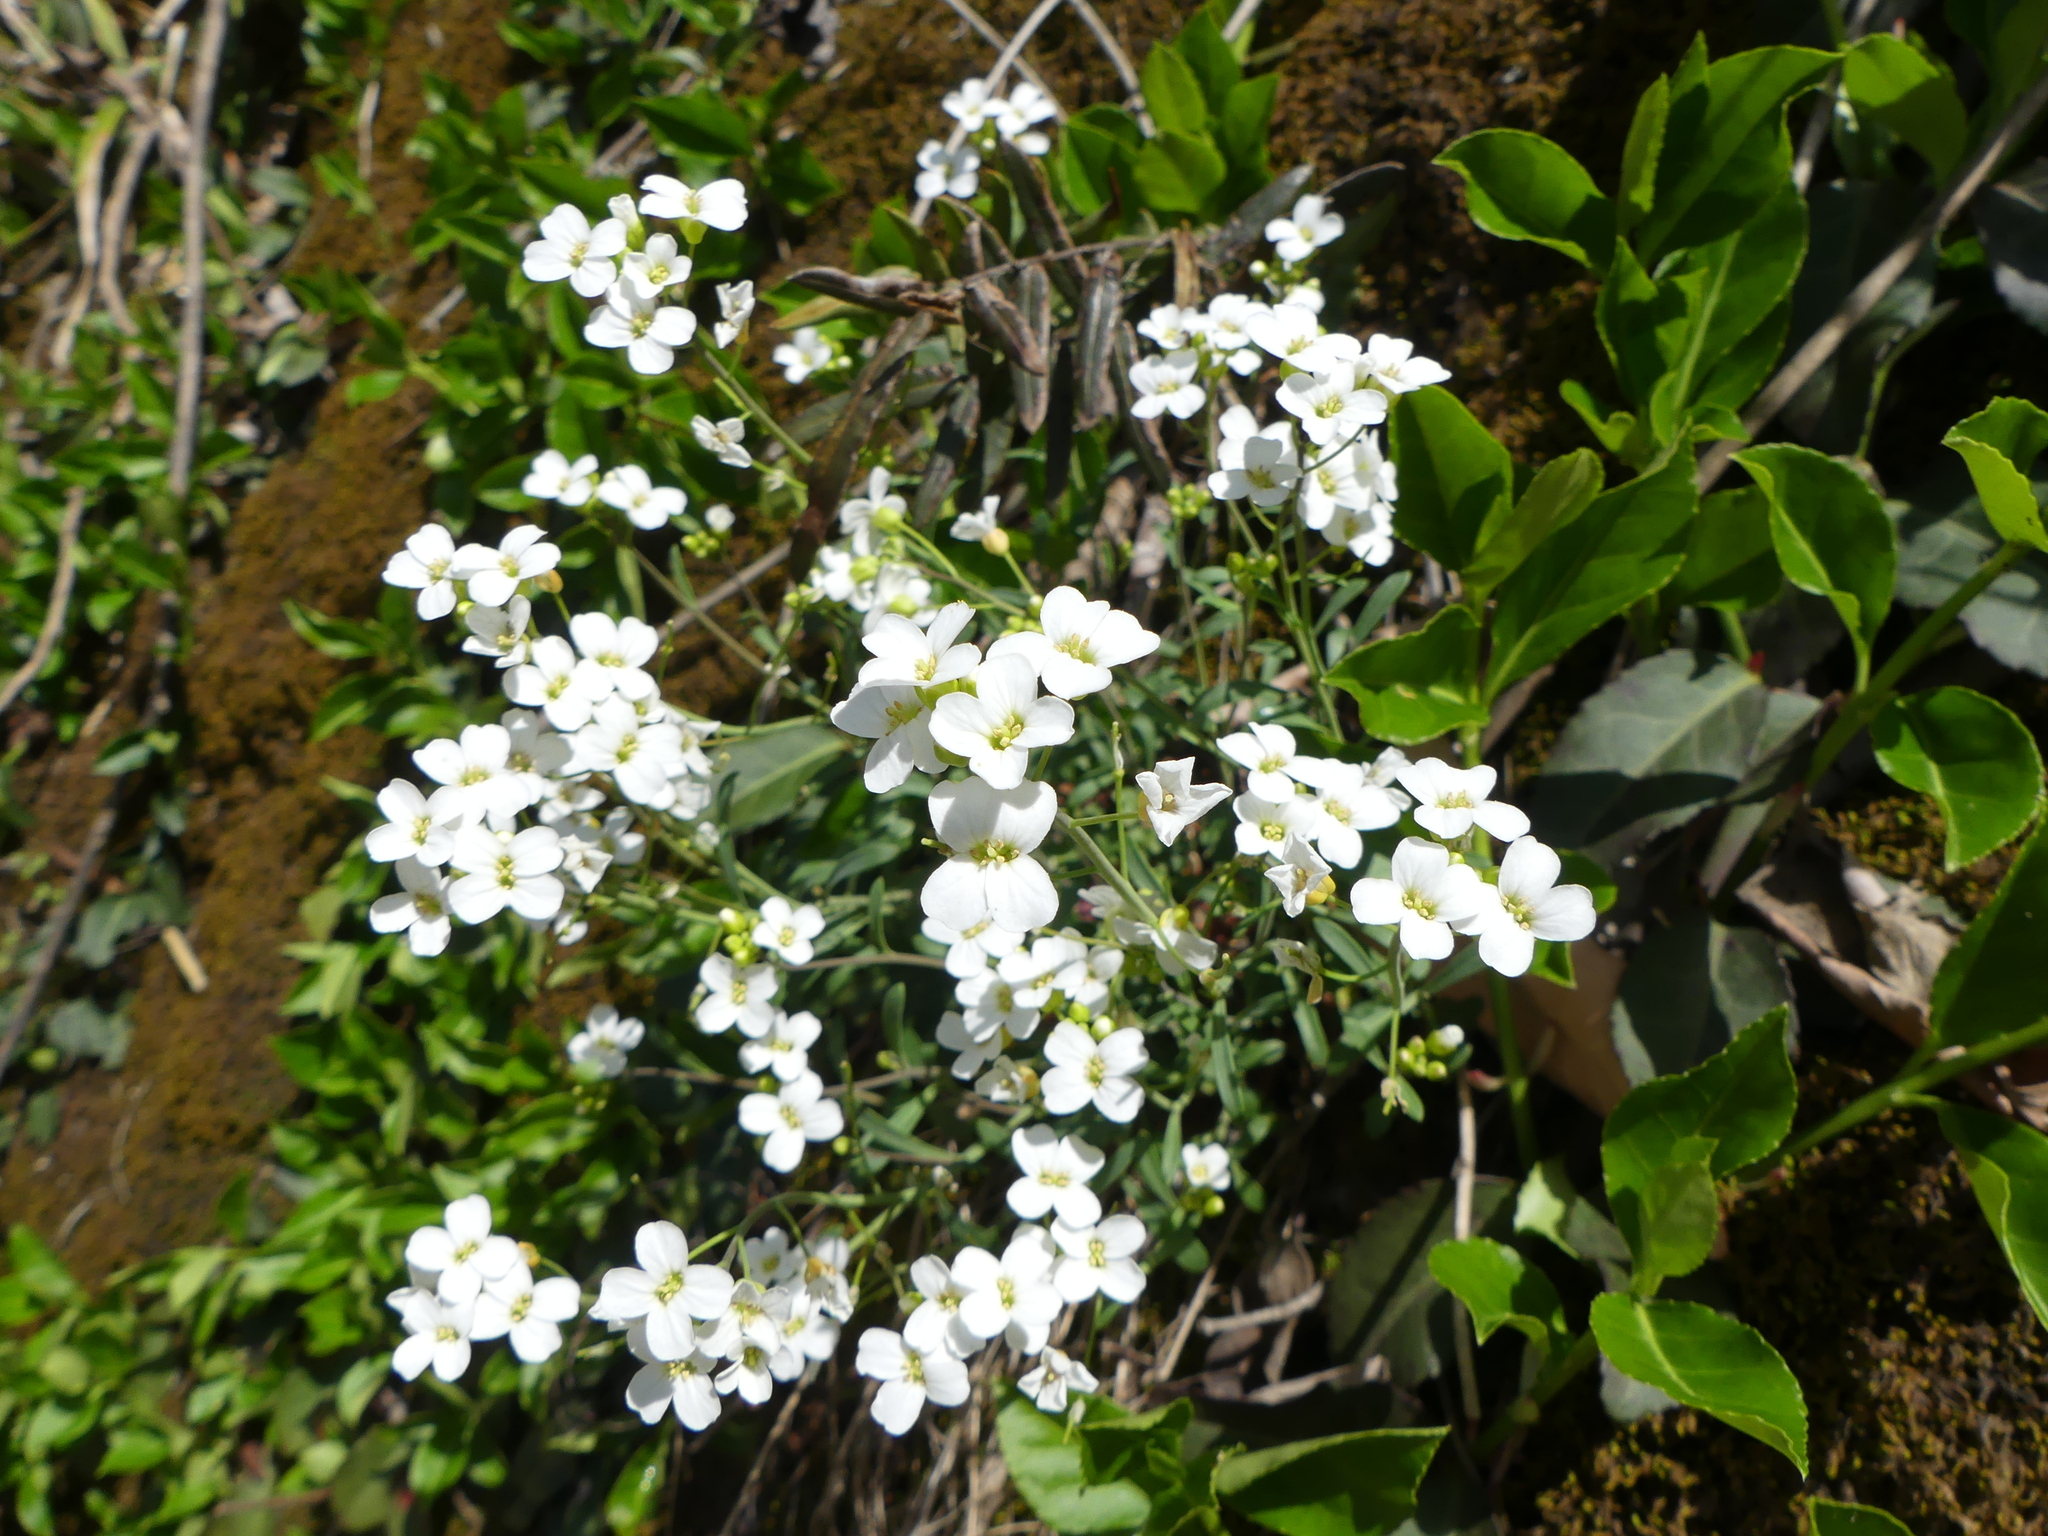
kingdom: Plantae
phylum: Tracheophyta
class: Magnoliopsida
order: Brassicales
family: Brassicaceae
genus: Arabidopsis
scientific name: Arabidopsis lyrata
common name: Lyrate rockcress
